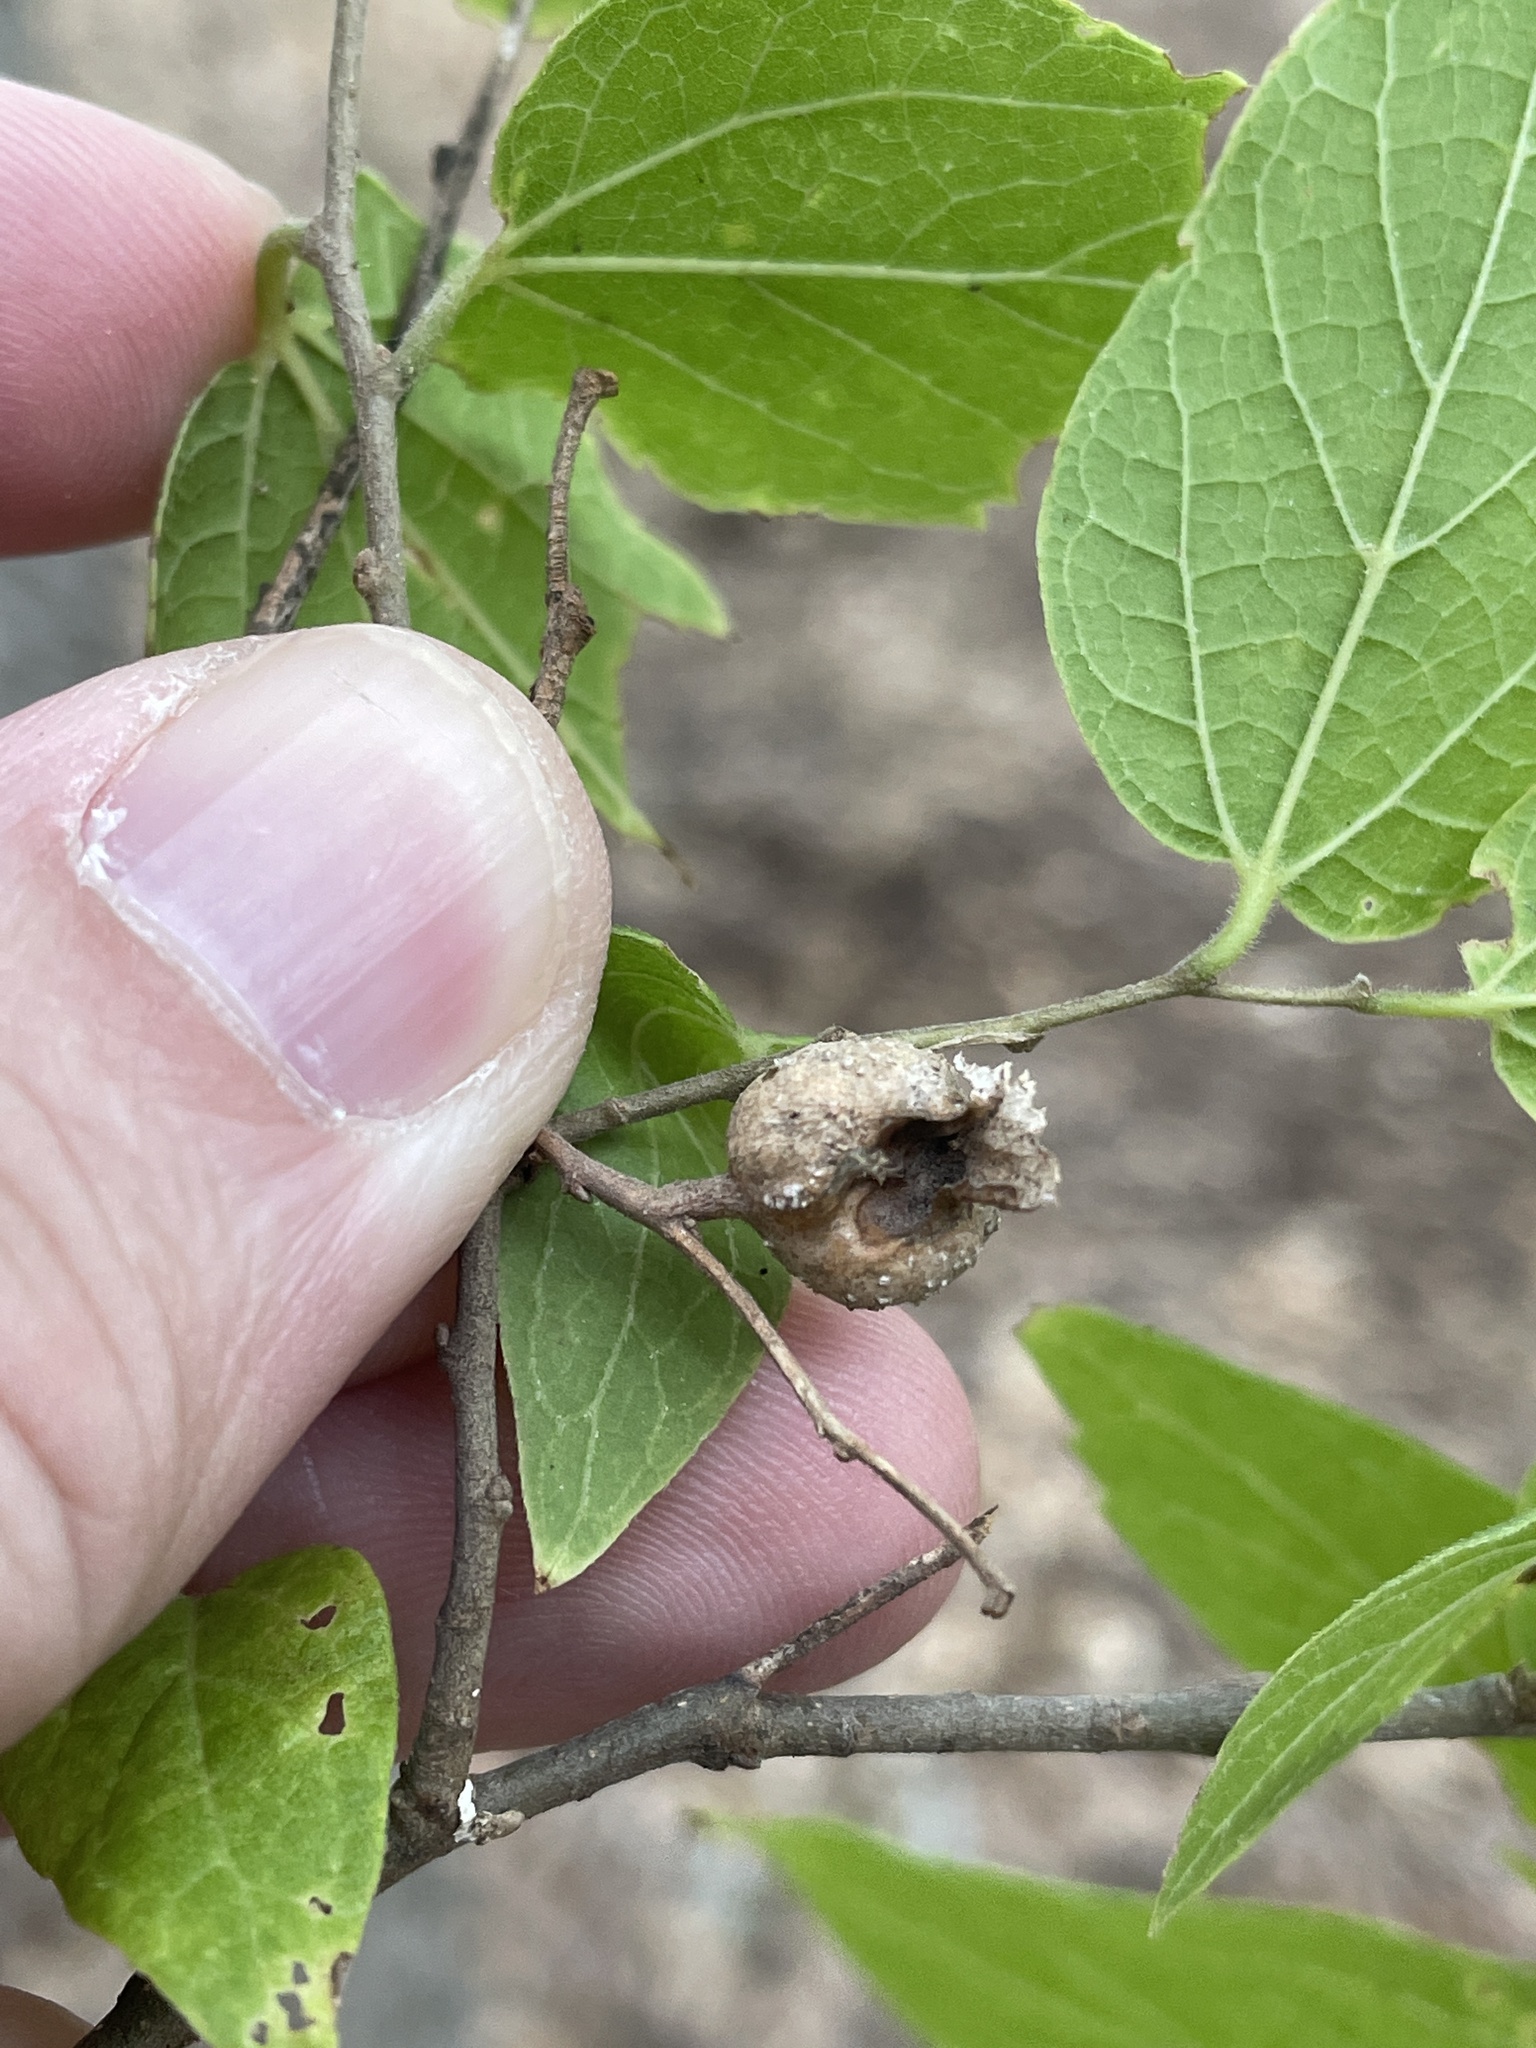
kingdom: Animalia
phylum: Arthropoda
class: Insecta
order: Hemiptera
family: Aphalaridae
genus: Pachypsylla
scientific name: Pachypsylla venusta
